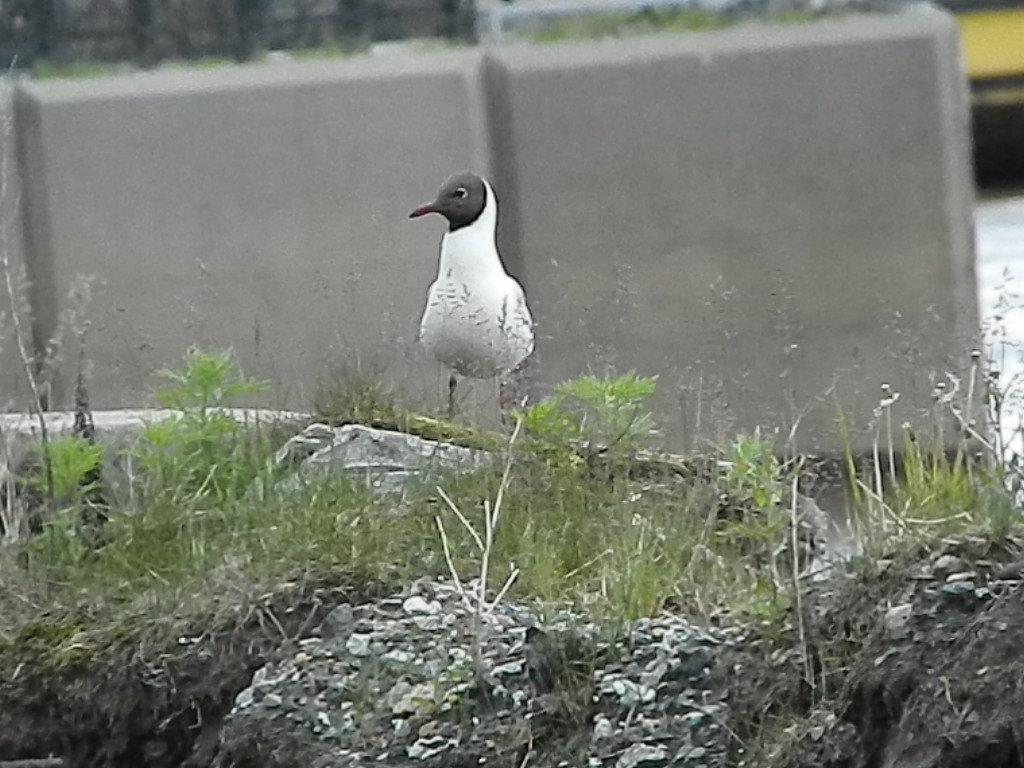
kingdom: Animalia
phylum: Chordata
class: Aves
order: Charadriiformes
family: Laridae
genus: Chroicocephalus
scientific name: Chroicocephalus ridibundus
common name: Black-headed gull
